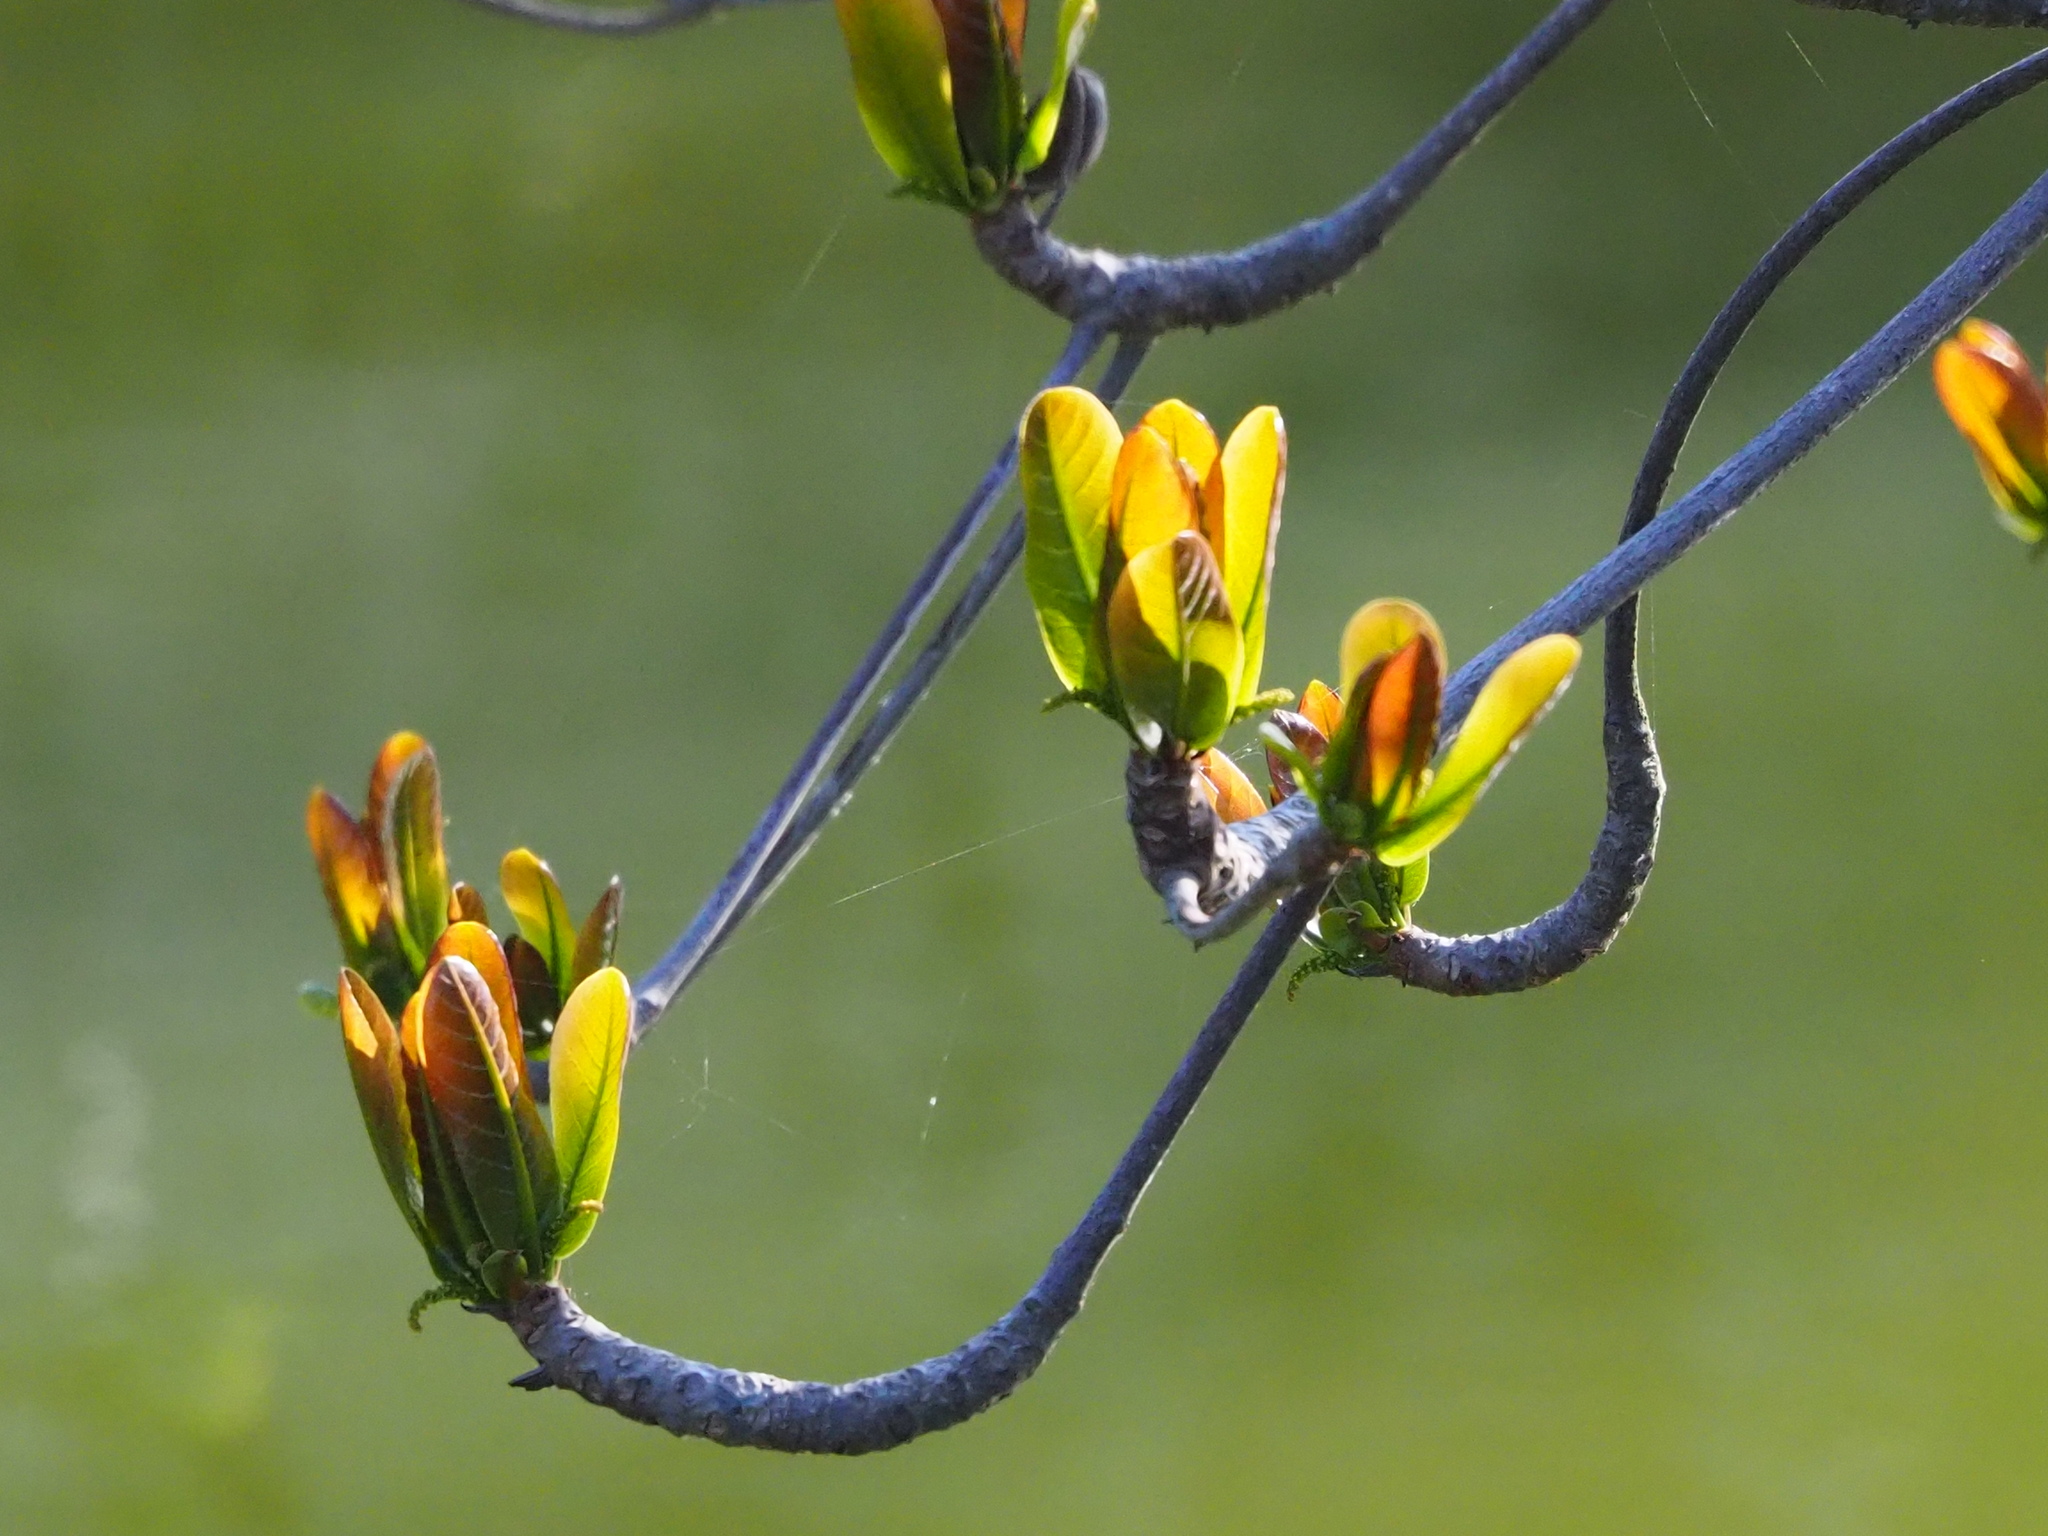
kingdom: Plantae
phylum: Tracheophyta
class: Magnoliopsida
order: Myrtales
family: Combretaceae
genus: Terminalia
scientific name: Terminalia catappa
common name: Tropical almond
